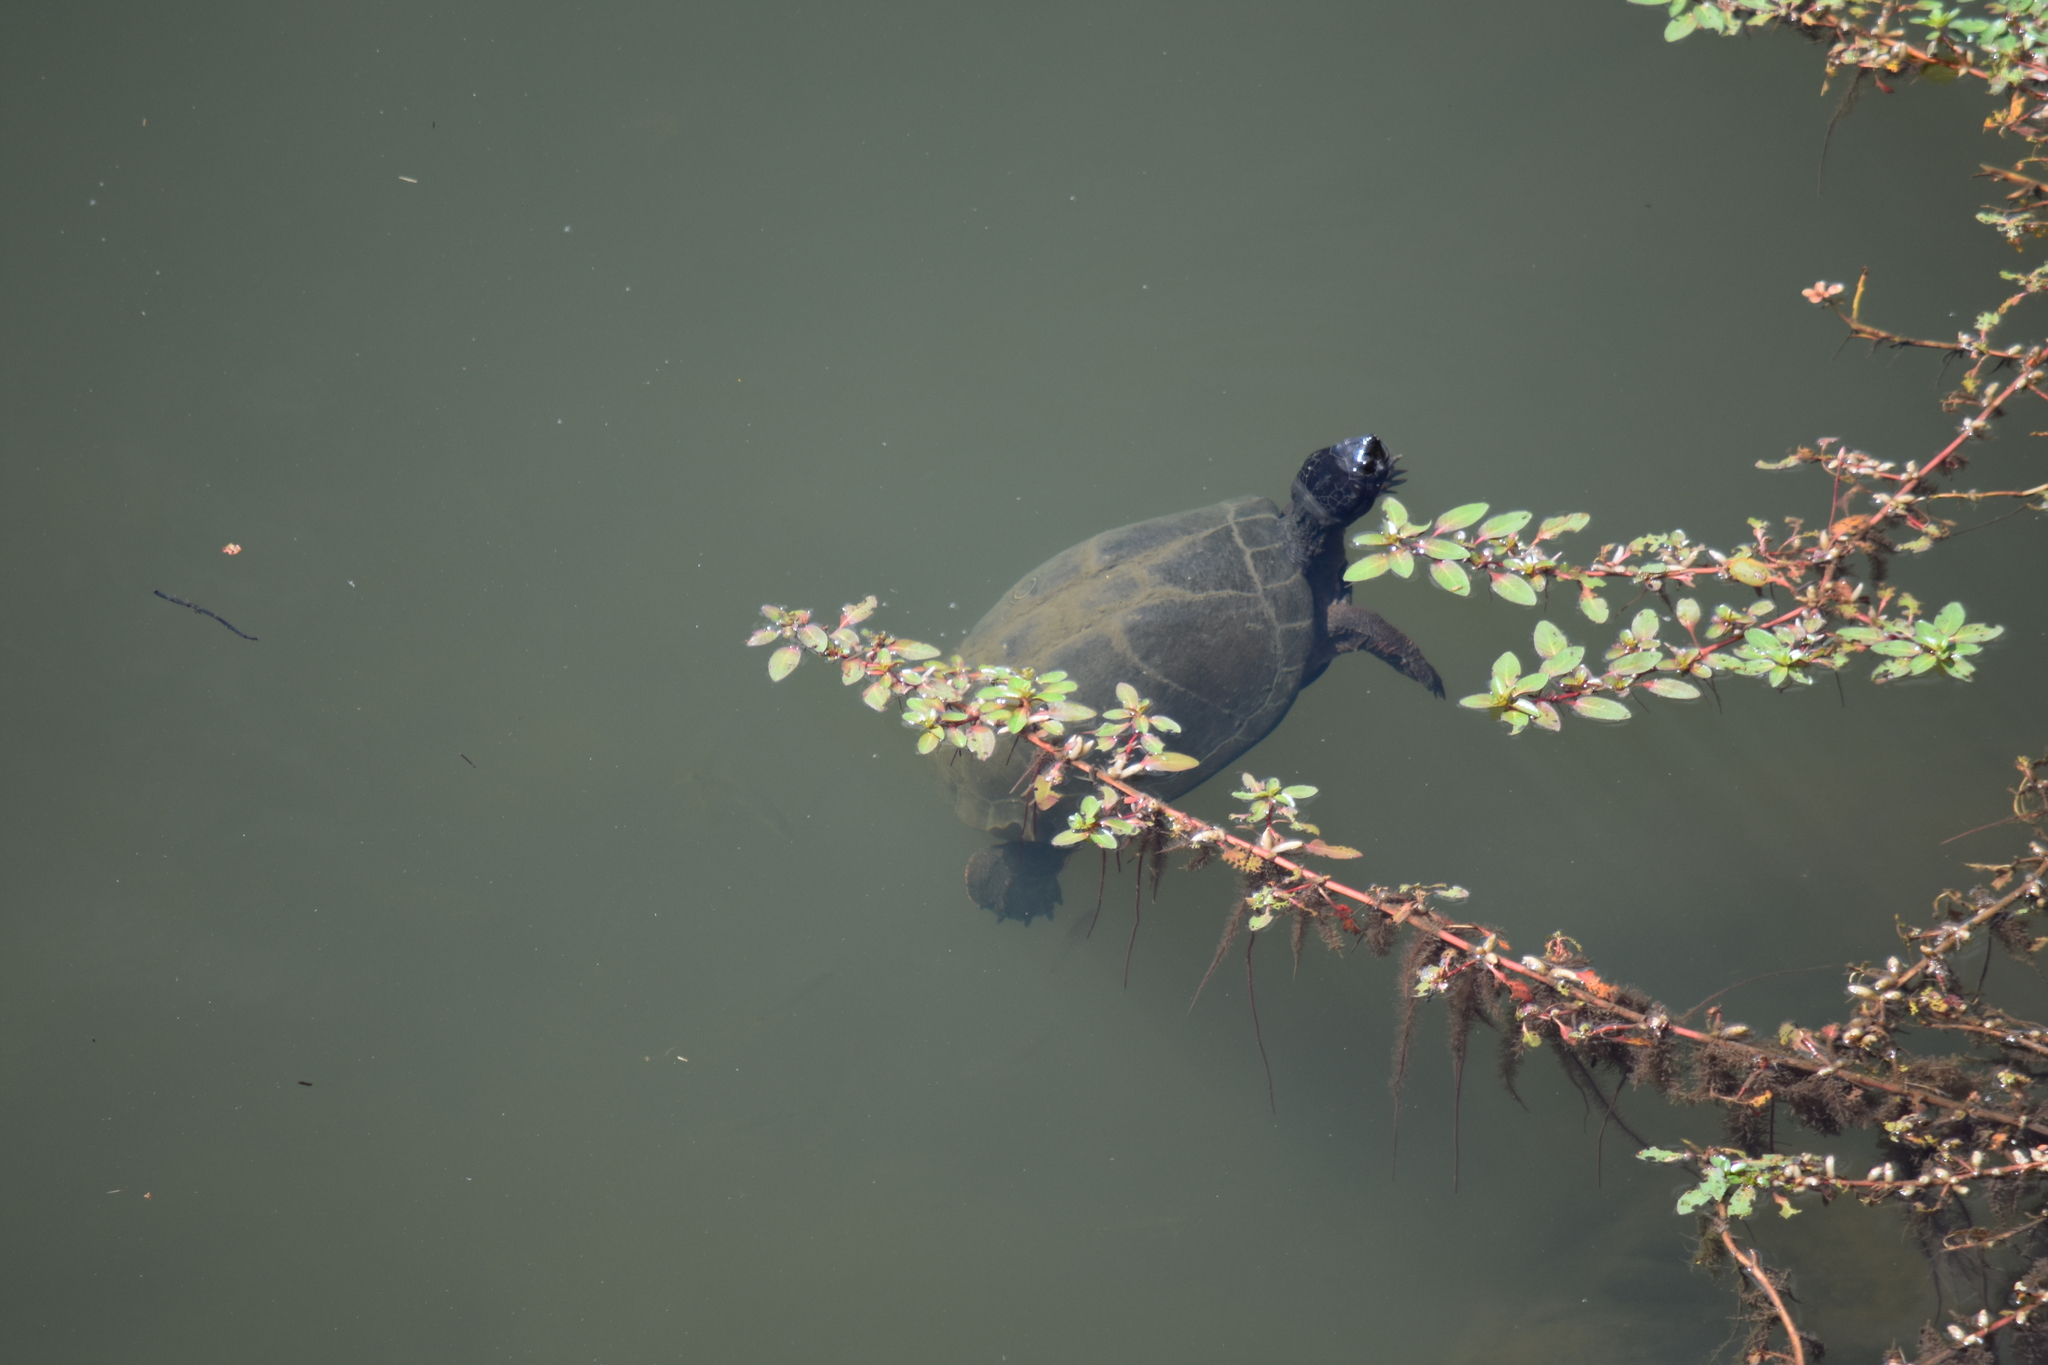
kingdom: Animalia
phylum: Chordata
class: Testudines
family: Pelomedusidae
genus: Pelusios
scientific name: Pelusios sinuatus
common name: Serrated hinged terrapin
